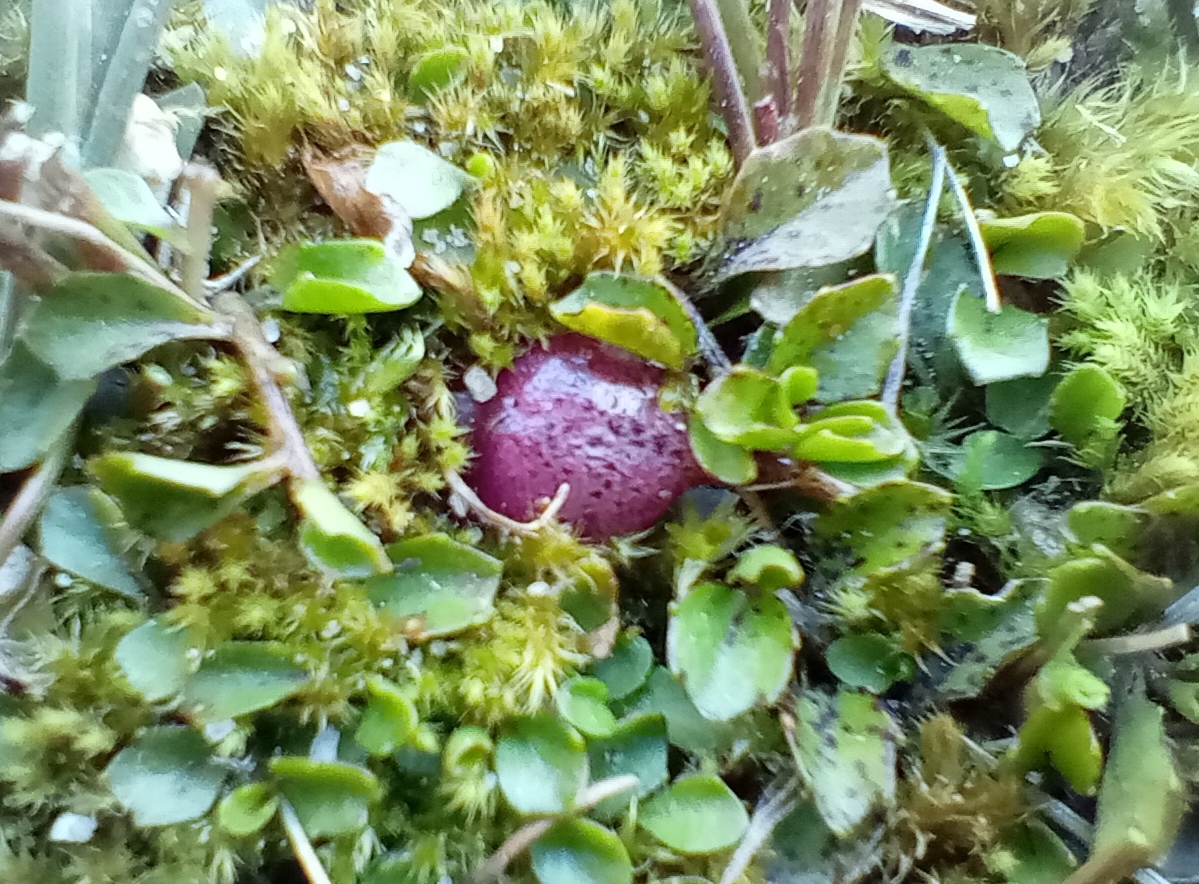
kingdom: Plantae
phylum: Tracheophyta
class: Magnoliopsida
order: Asterales
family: Campanulaceae
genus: Lobelia
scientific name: Lobelia angulata
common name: Lawn lobelia
